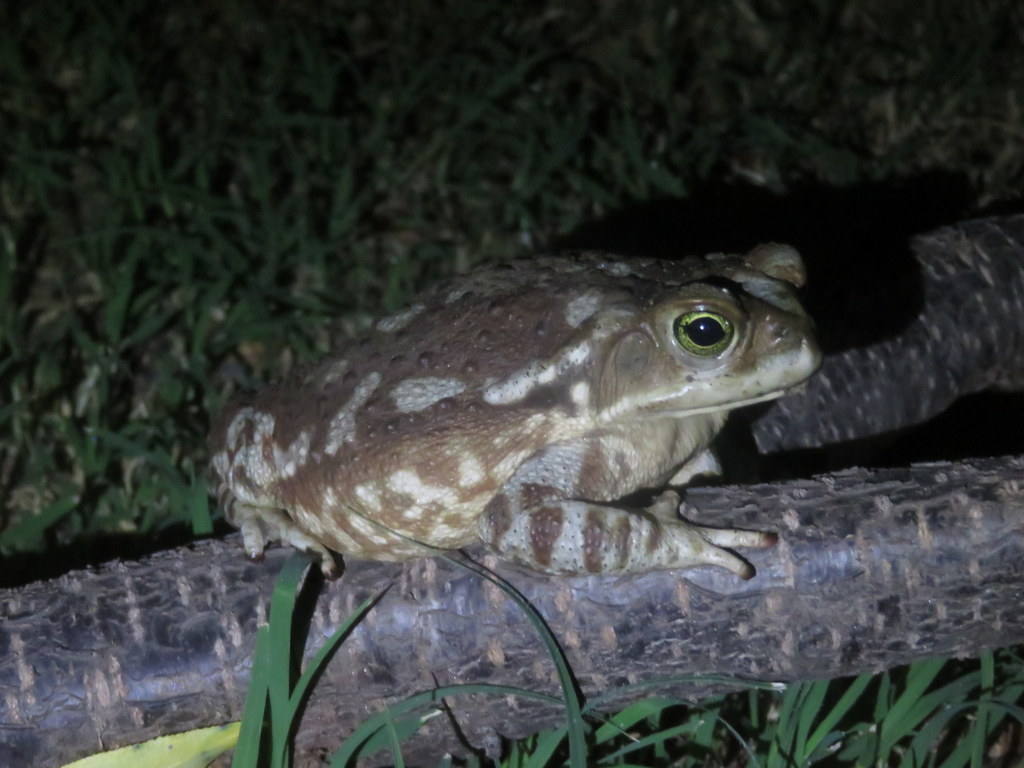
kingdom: Animalia
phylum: Chordata
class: Amphibia
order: Anura
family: Bufonidae
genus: Rhinella
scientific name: Rhinella arenarum
